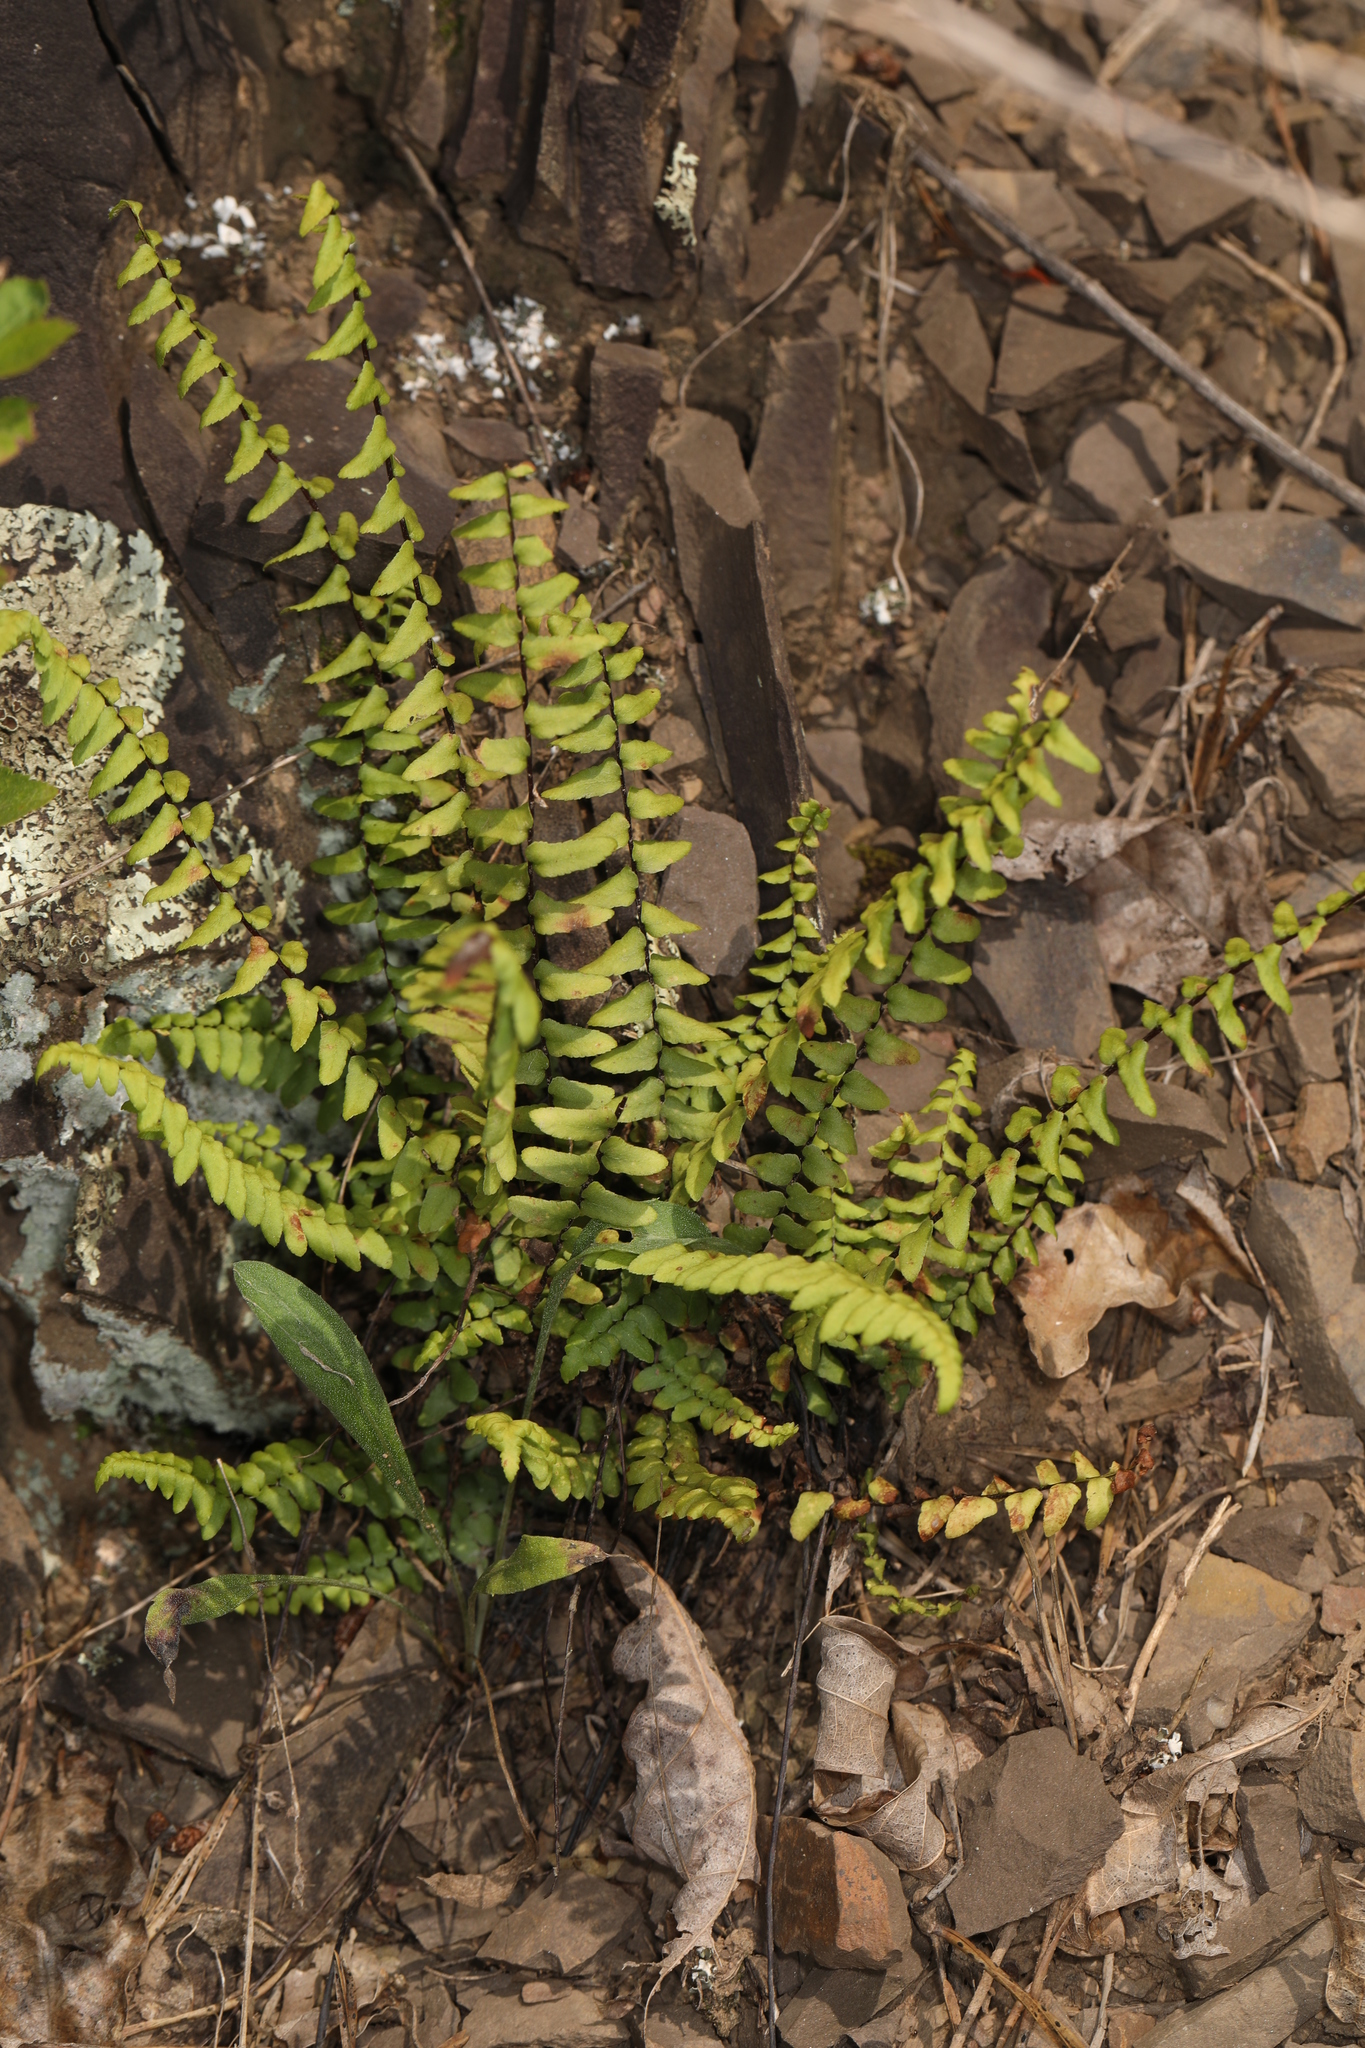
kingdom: Plantae
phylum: Tracheophyta
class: Polypodiopsida
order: Polypodiales
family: Aspleniaceae
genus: Asplenium
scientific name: Asplenium platyneuron
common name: Ebony spleenwort
